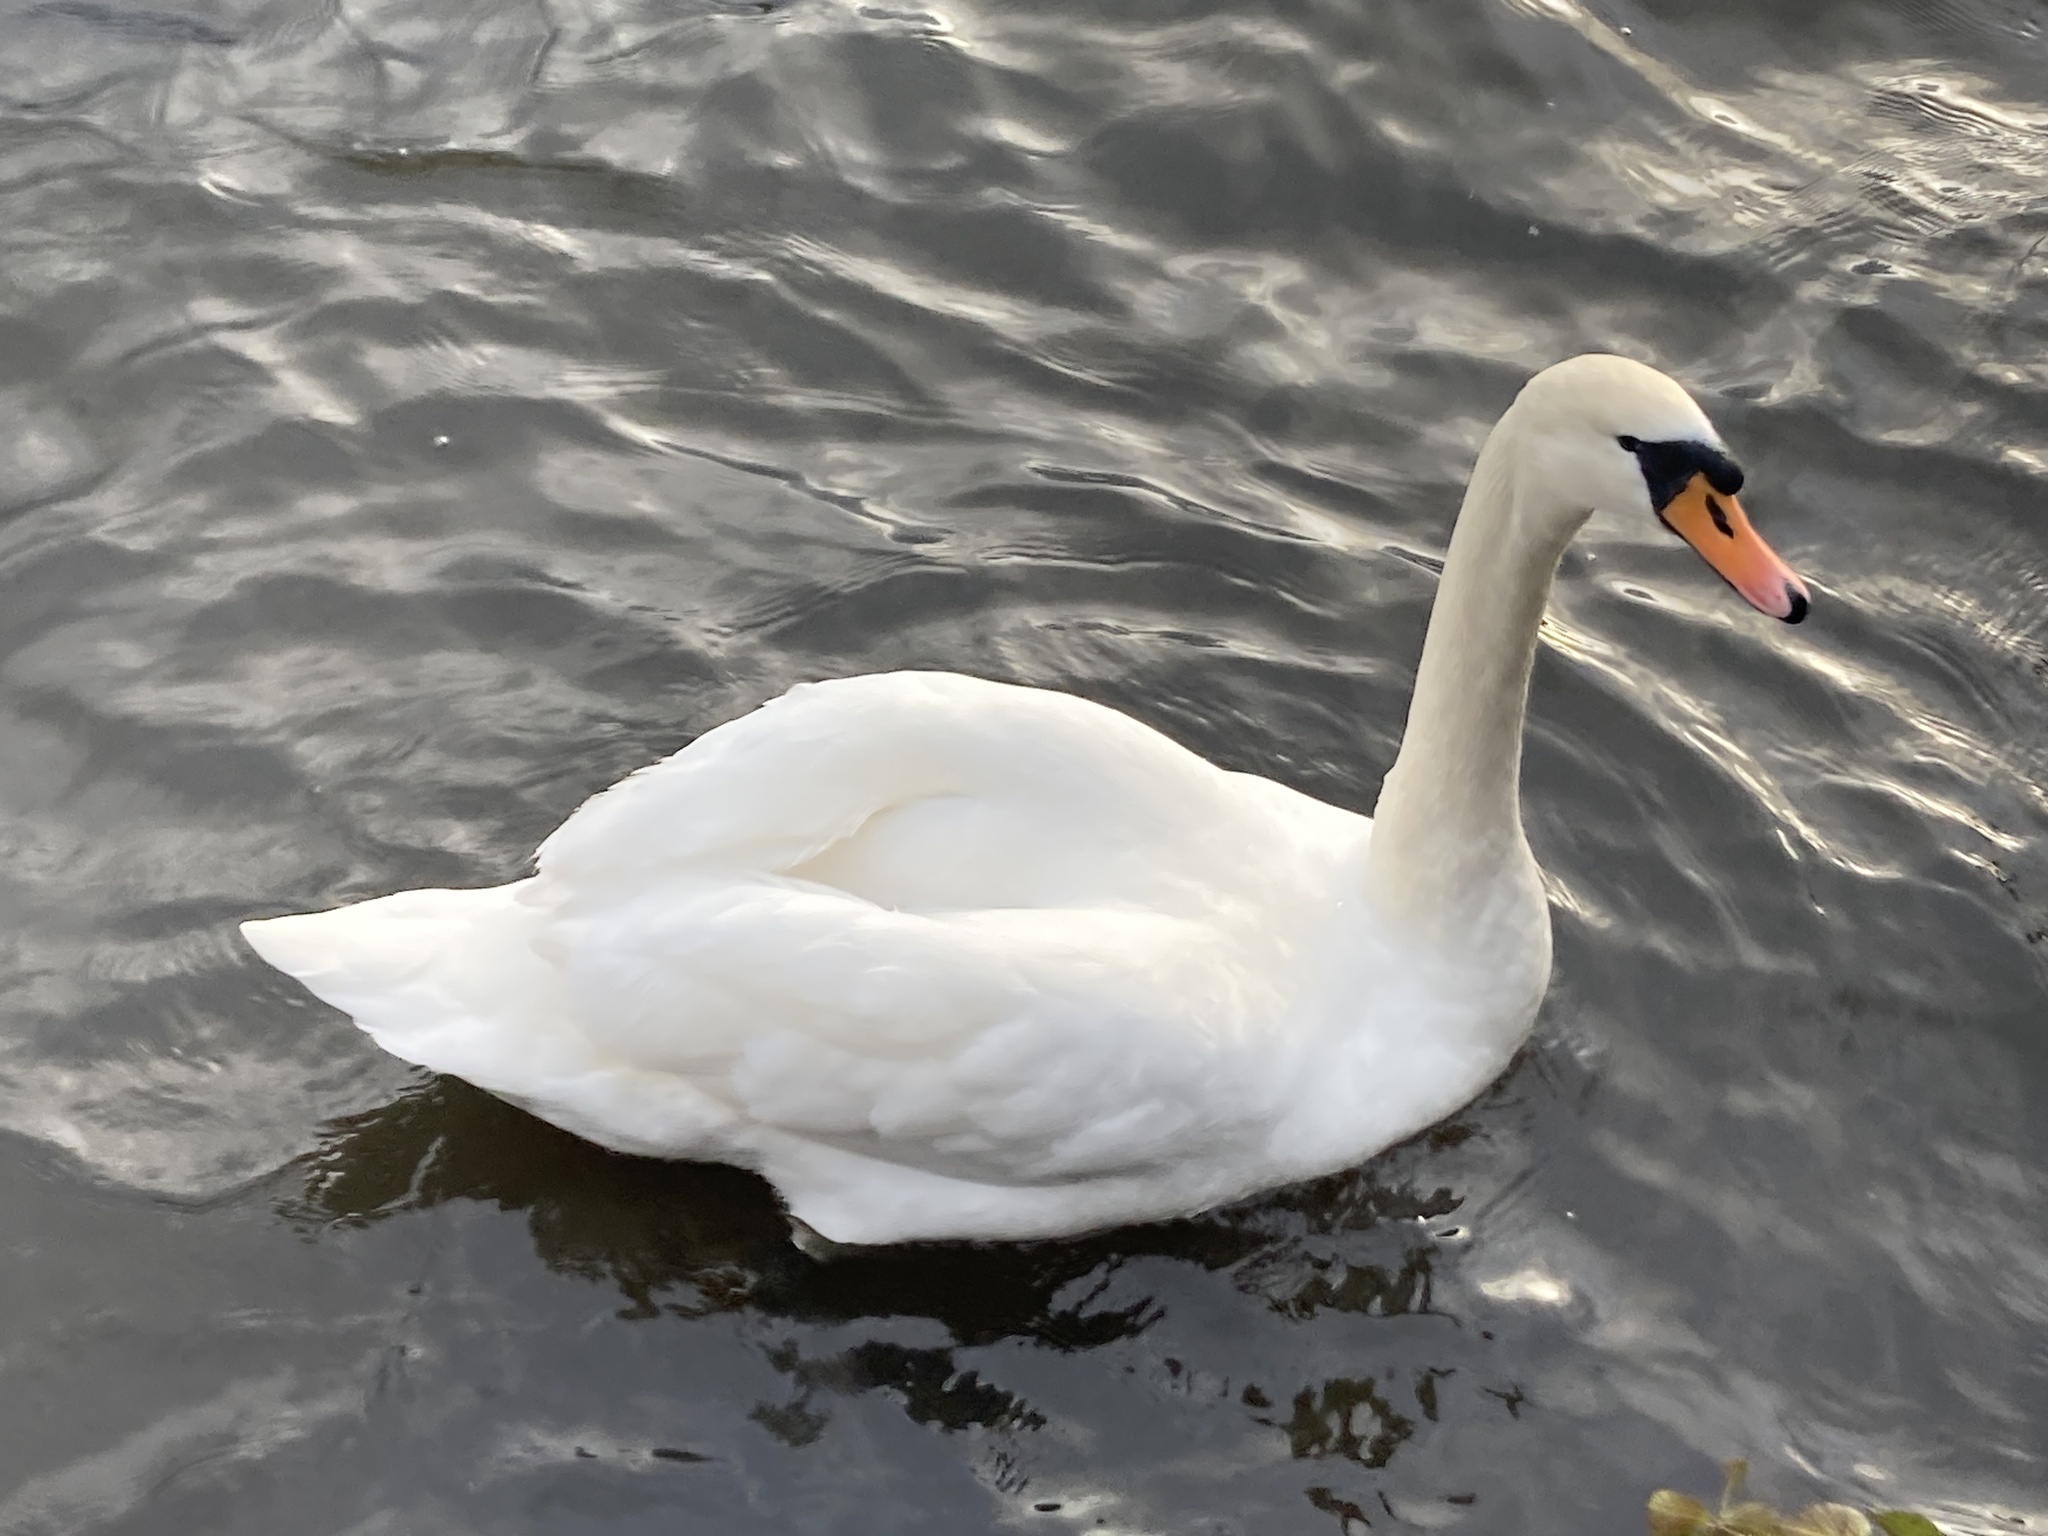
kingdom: Animalia
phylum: Chordata
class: Aves
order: Anseriformes
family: Anatidae
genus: Cygnus
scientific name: Cygnus olor
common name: Mute swan
